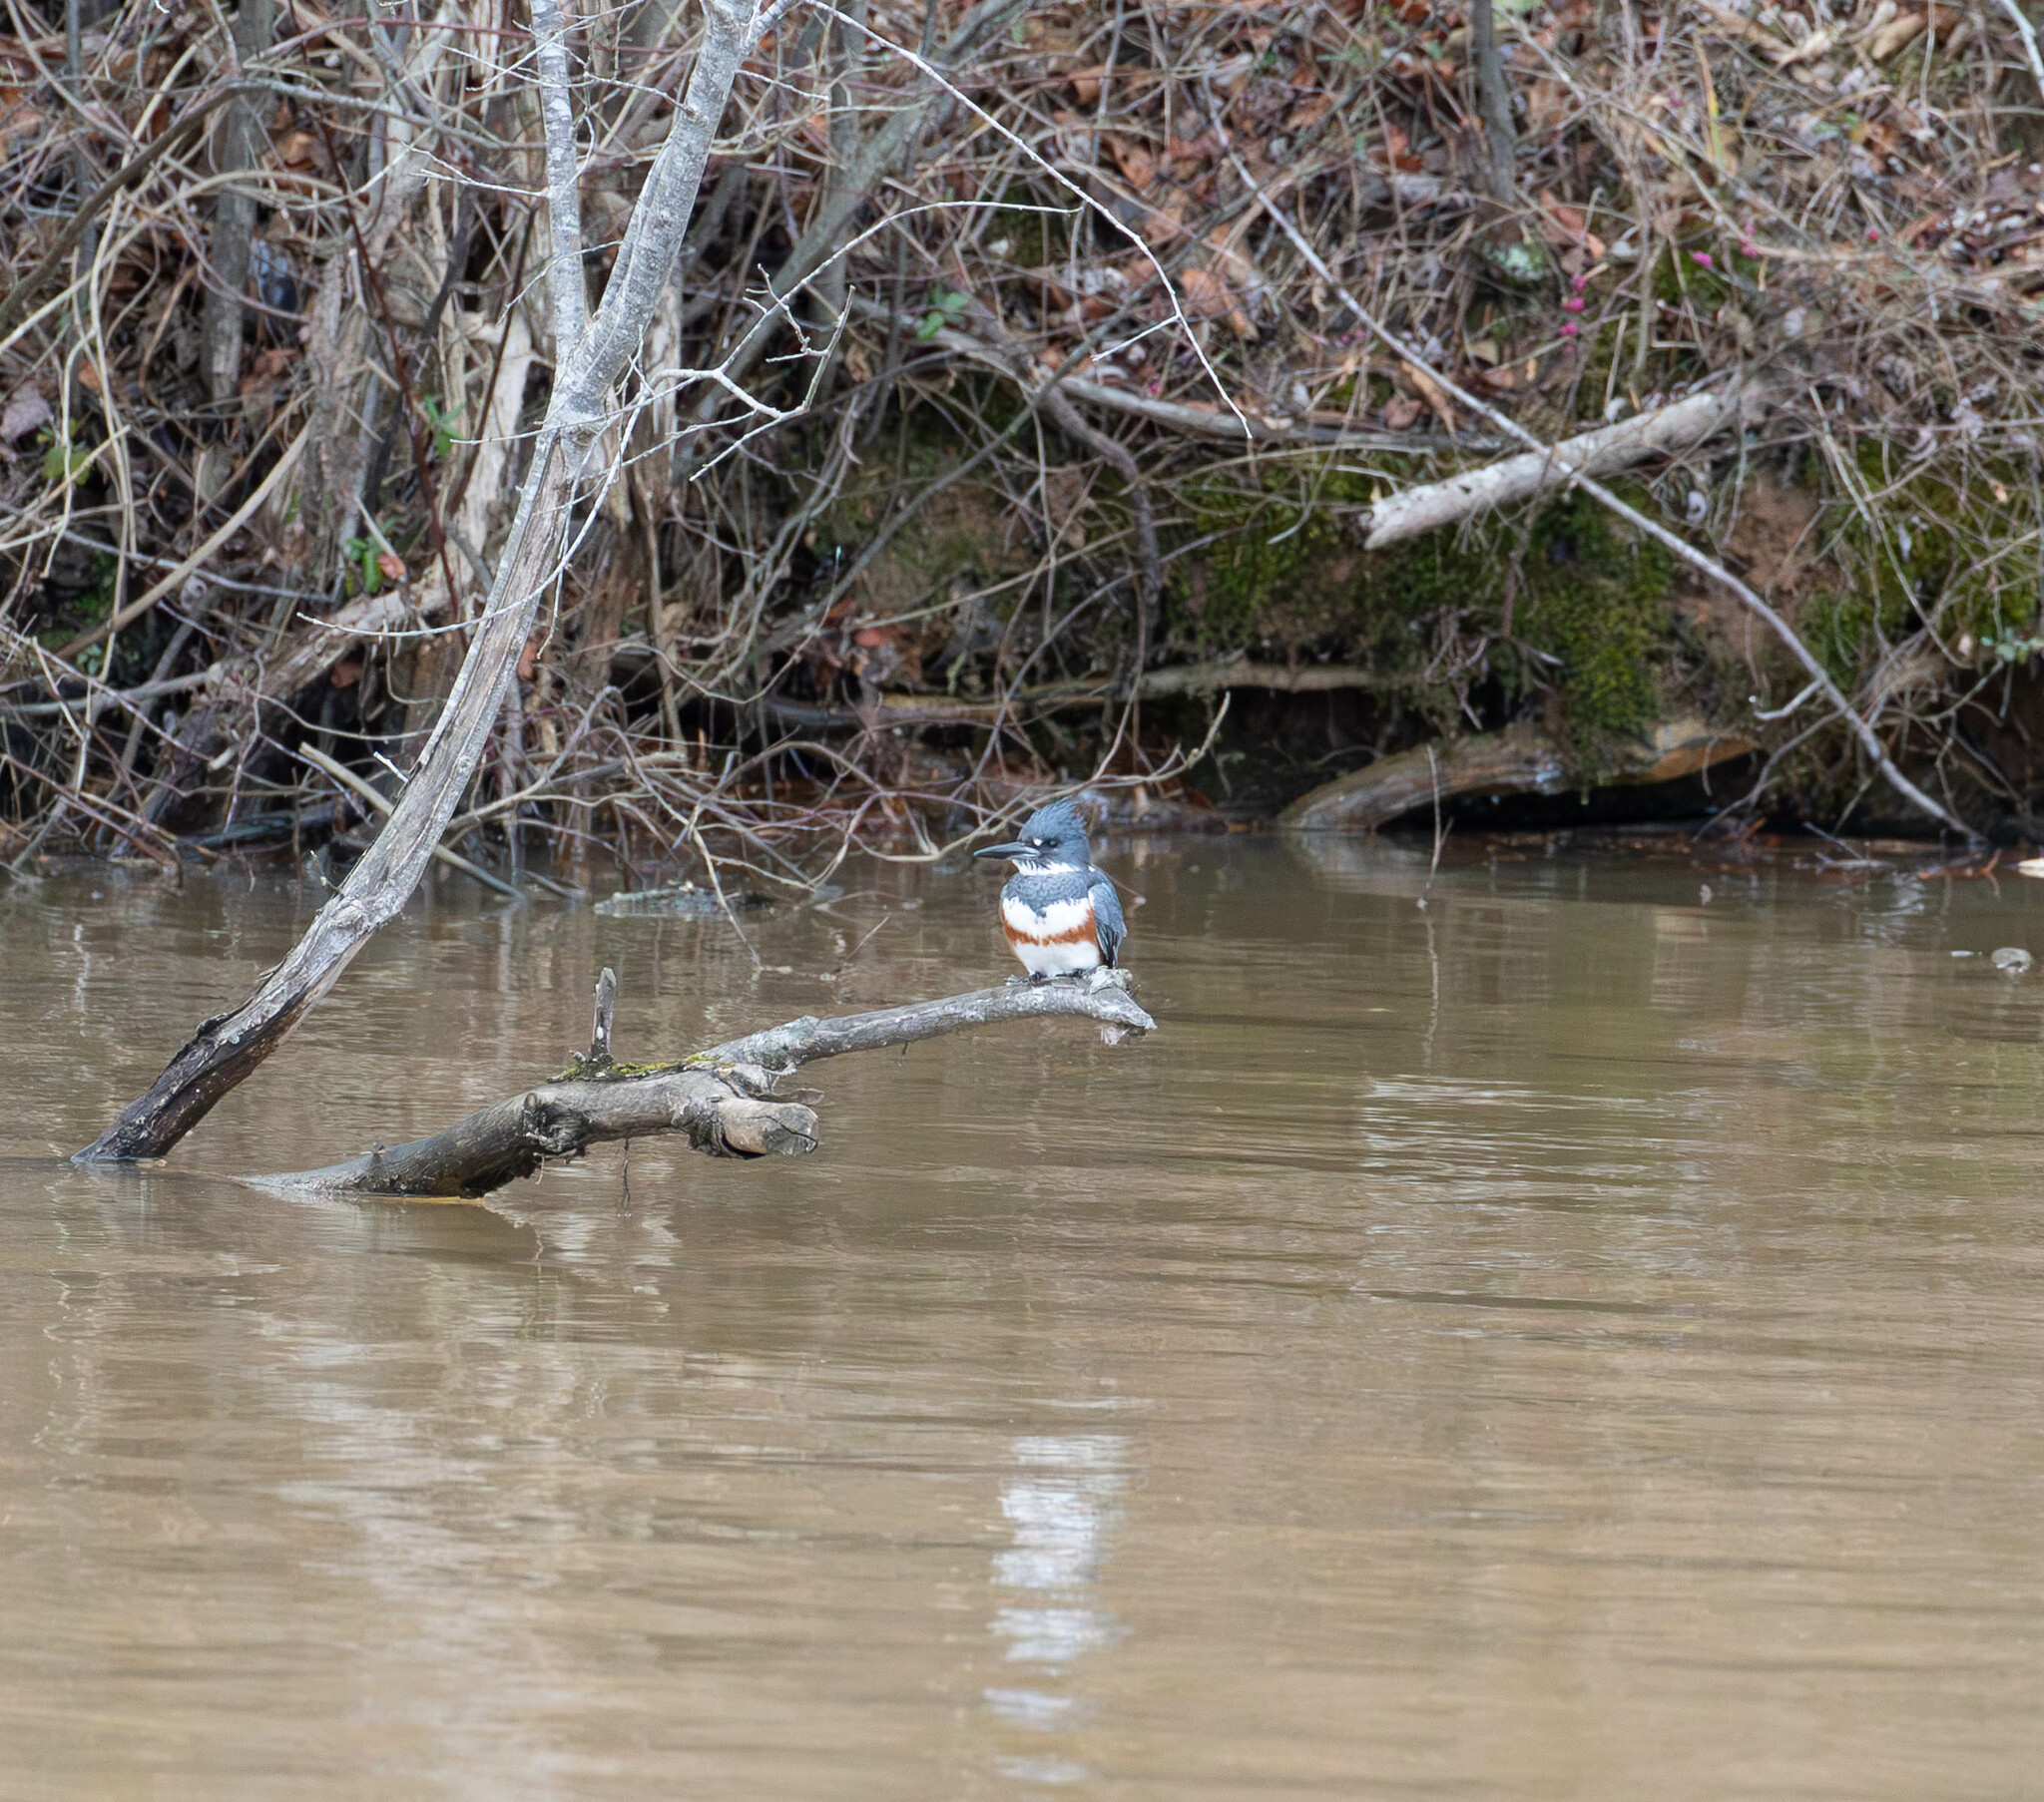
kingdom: Animalia
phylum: Chordata
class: Aves
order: Coraciiformes
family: Alcedinidae
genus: Megaceryle
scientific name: Megaceryle alcyon
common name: Belted kingfisher
